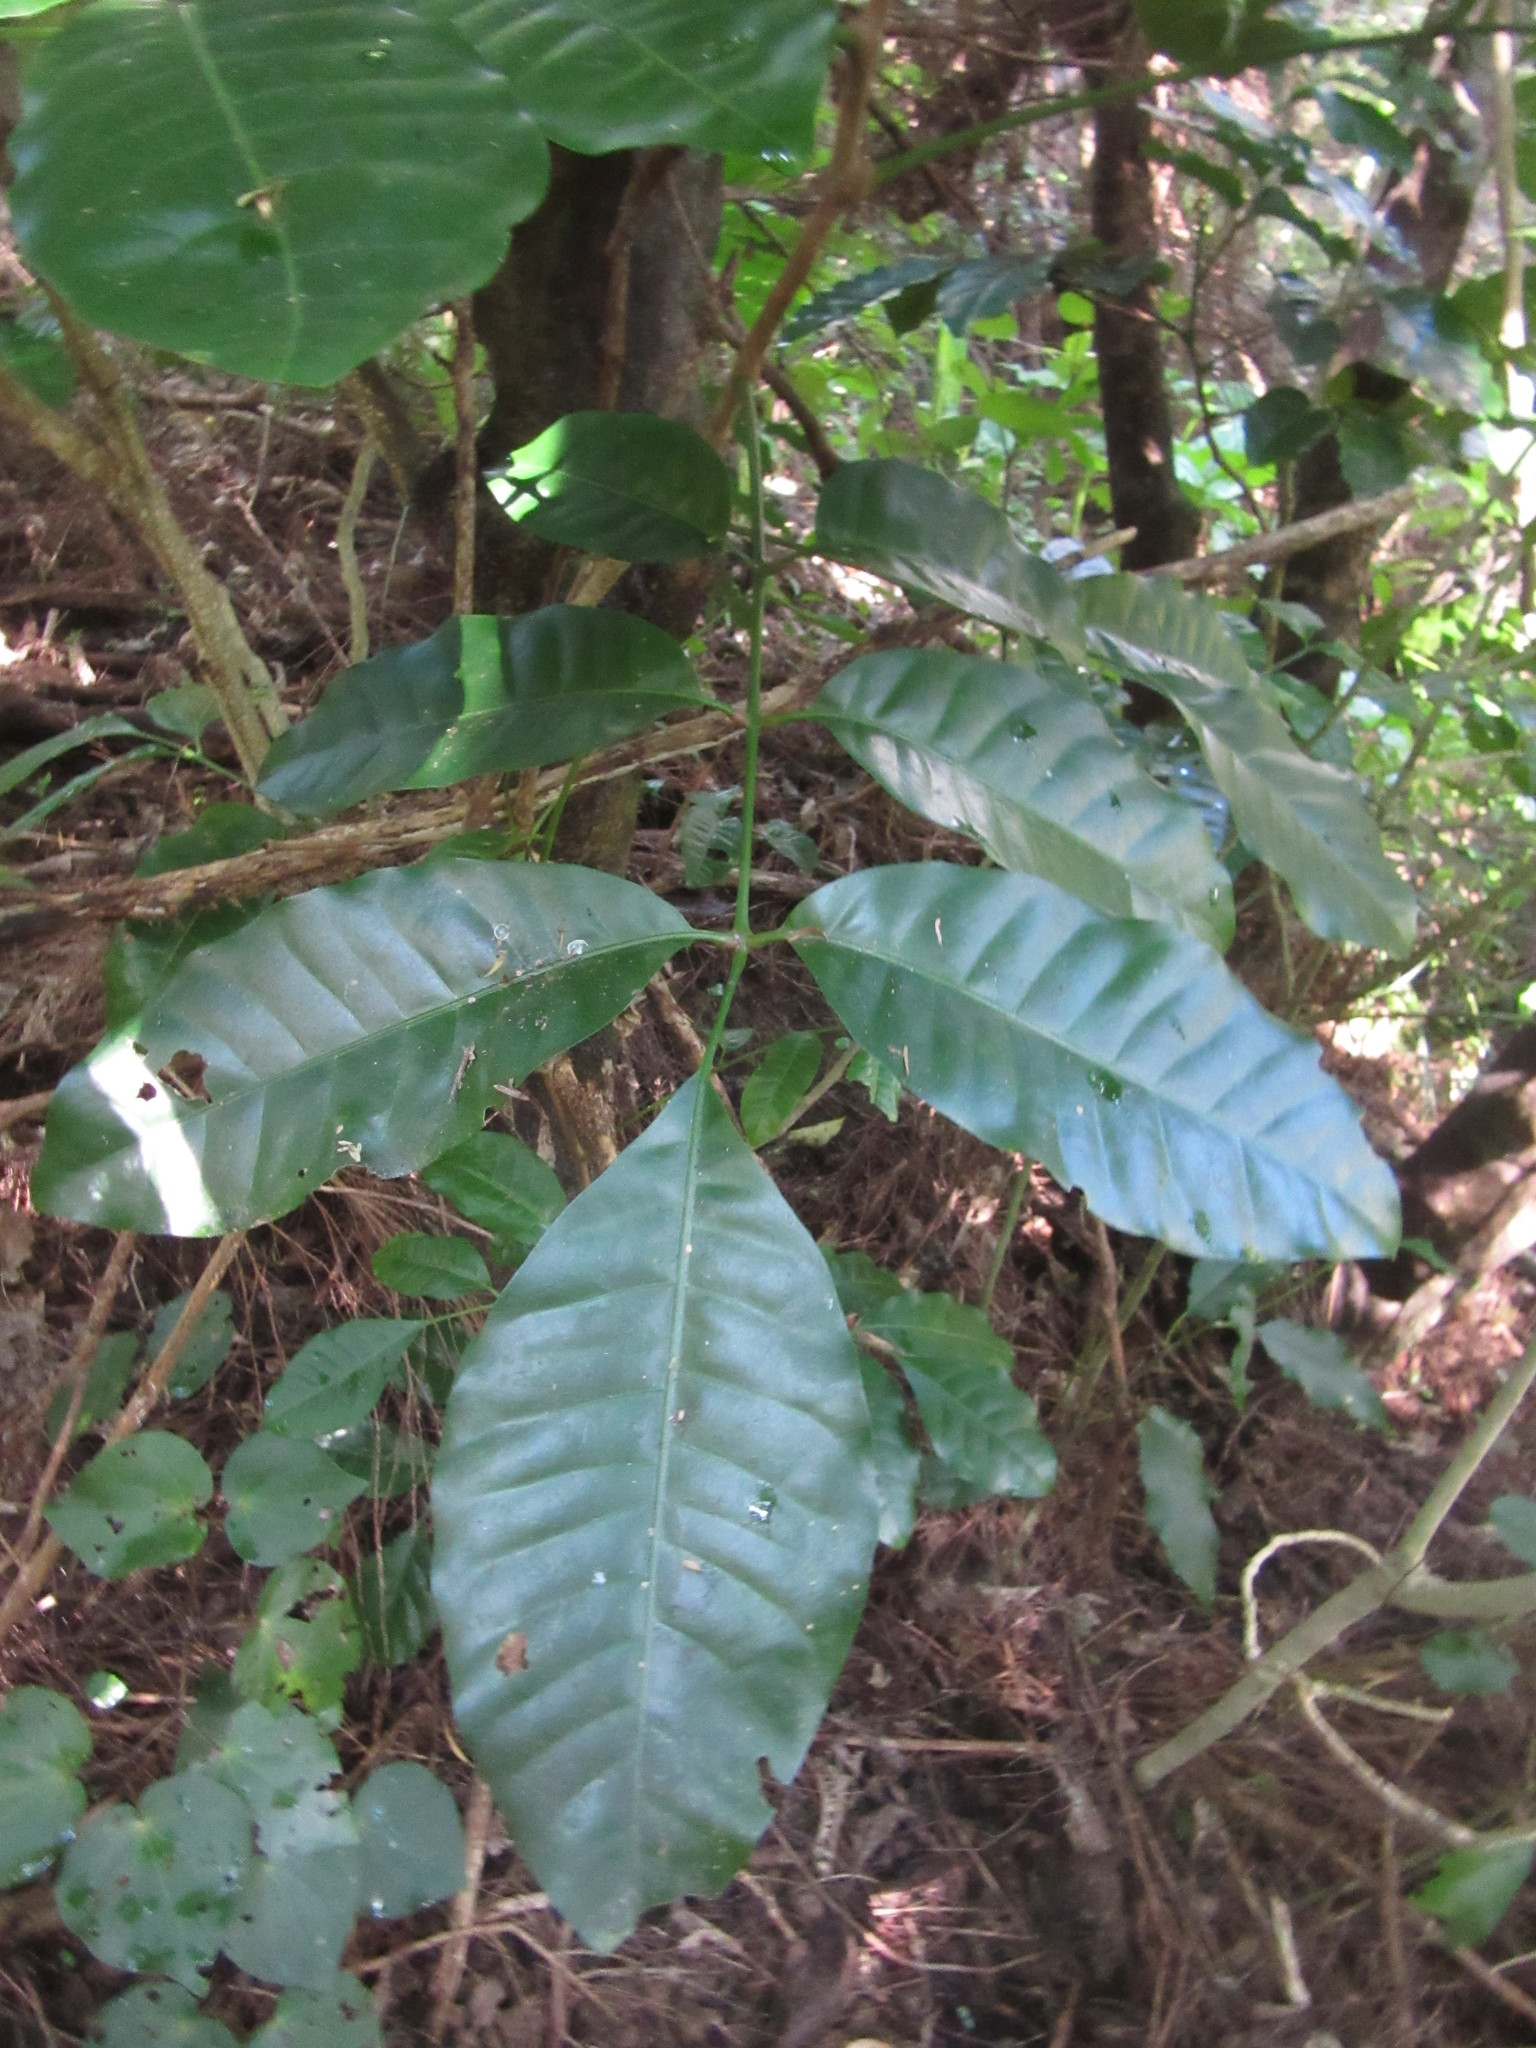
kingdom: Plantae
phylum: Tracheophyta
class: Magnoliopsida
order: Sapindales
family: Meliaceae
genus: Didymocheton
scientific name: Didymocheton spectabilis
